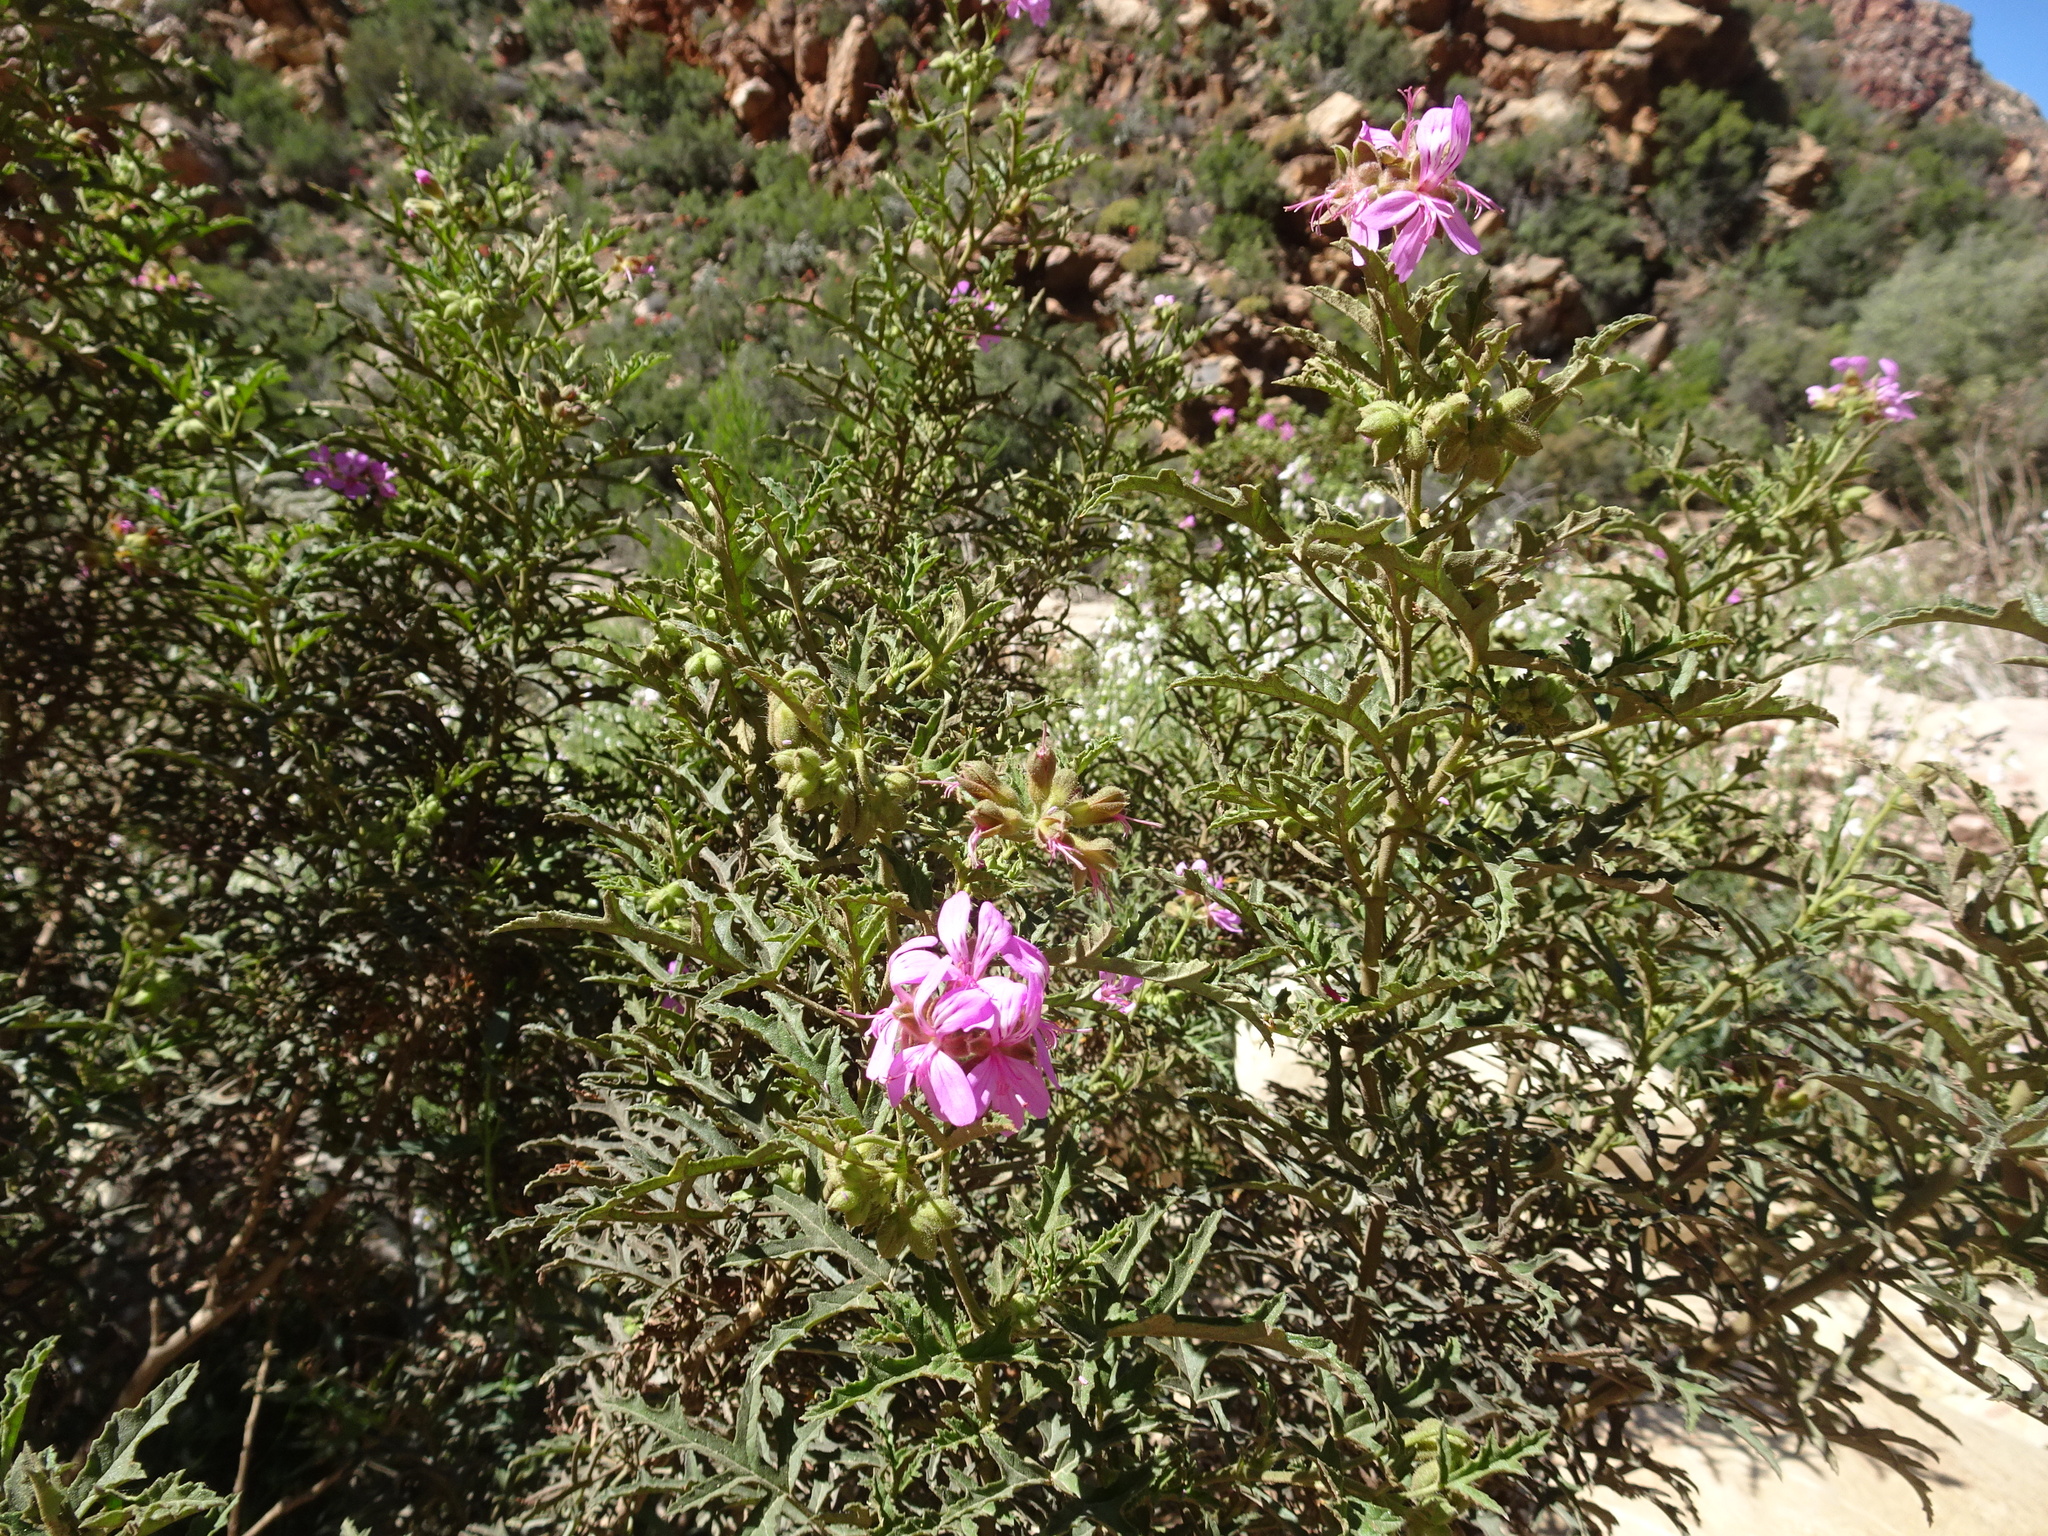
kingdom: Plantae
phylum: Tracheophyta
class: Magnoliopsida
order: Geraniales
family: Geraniaceae
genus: Pelargonium
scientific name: Pelargonium glutinosum
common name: Pheasant-foot geranium
